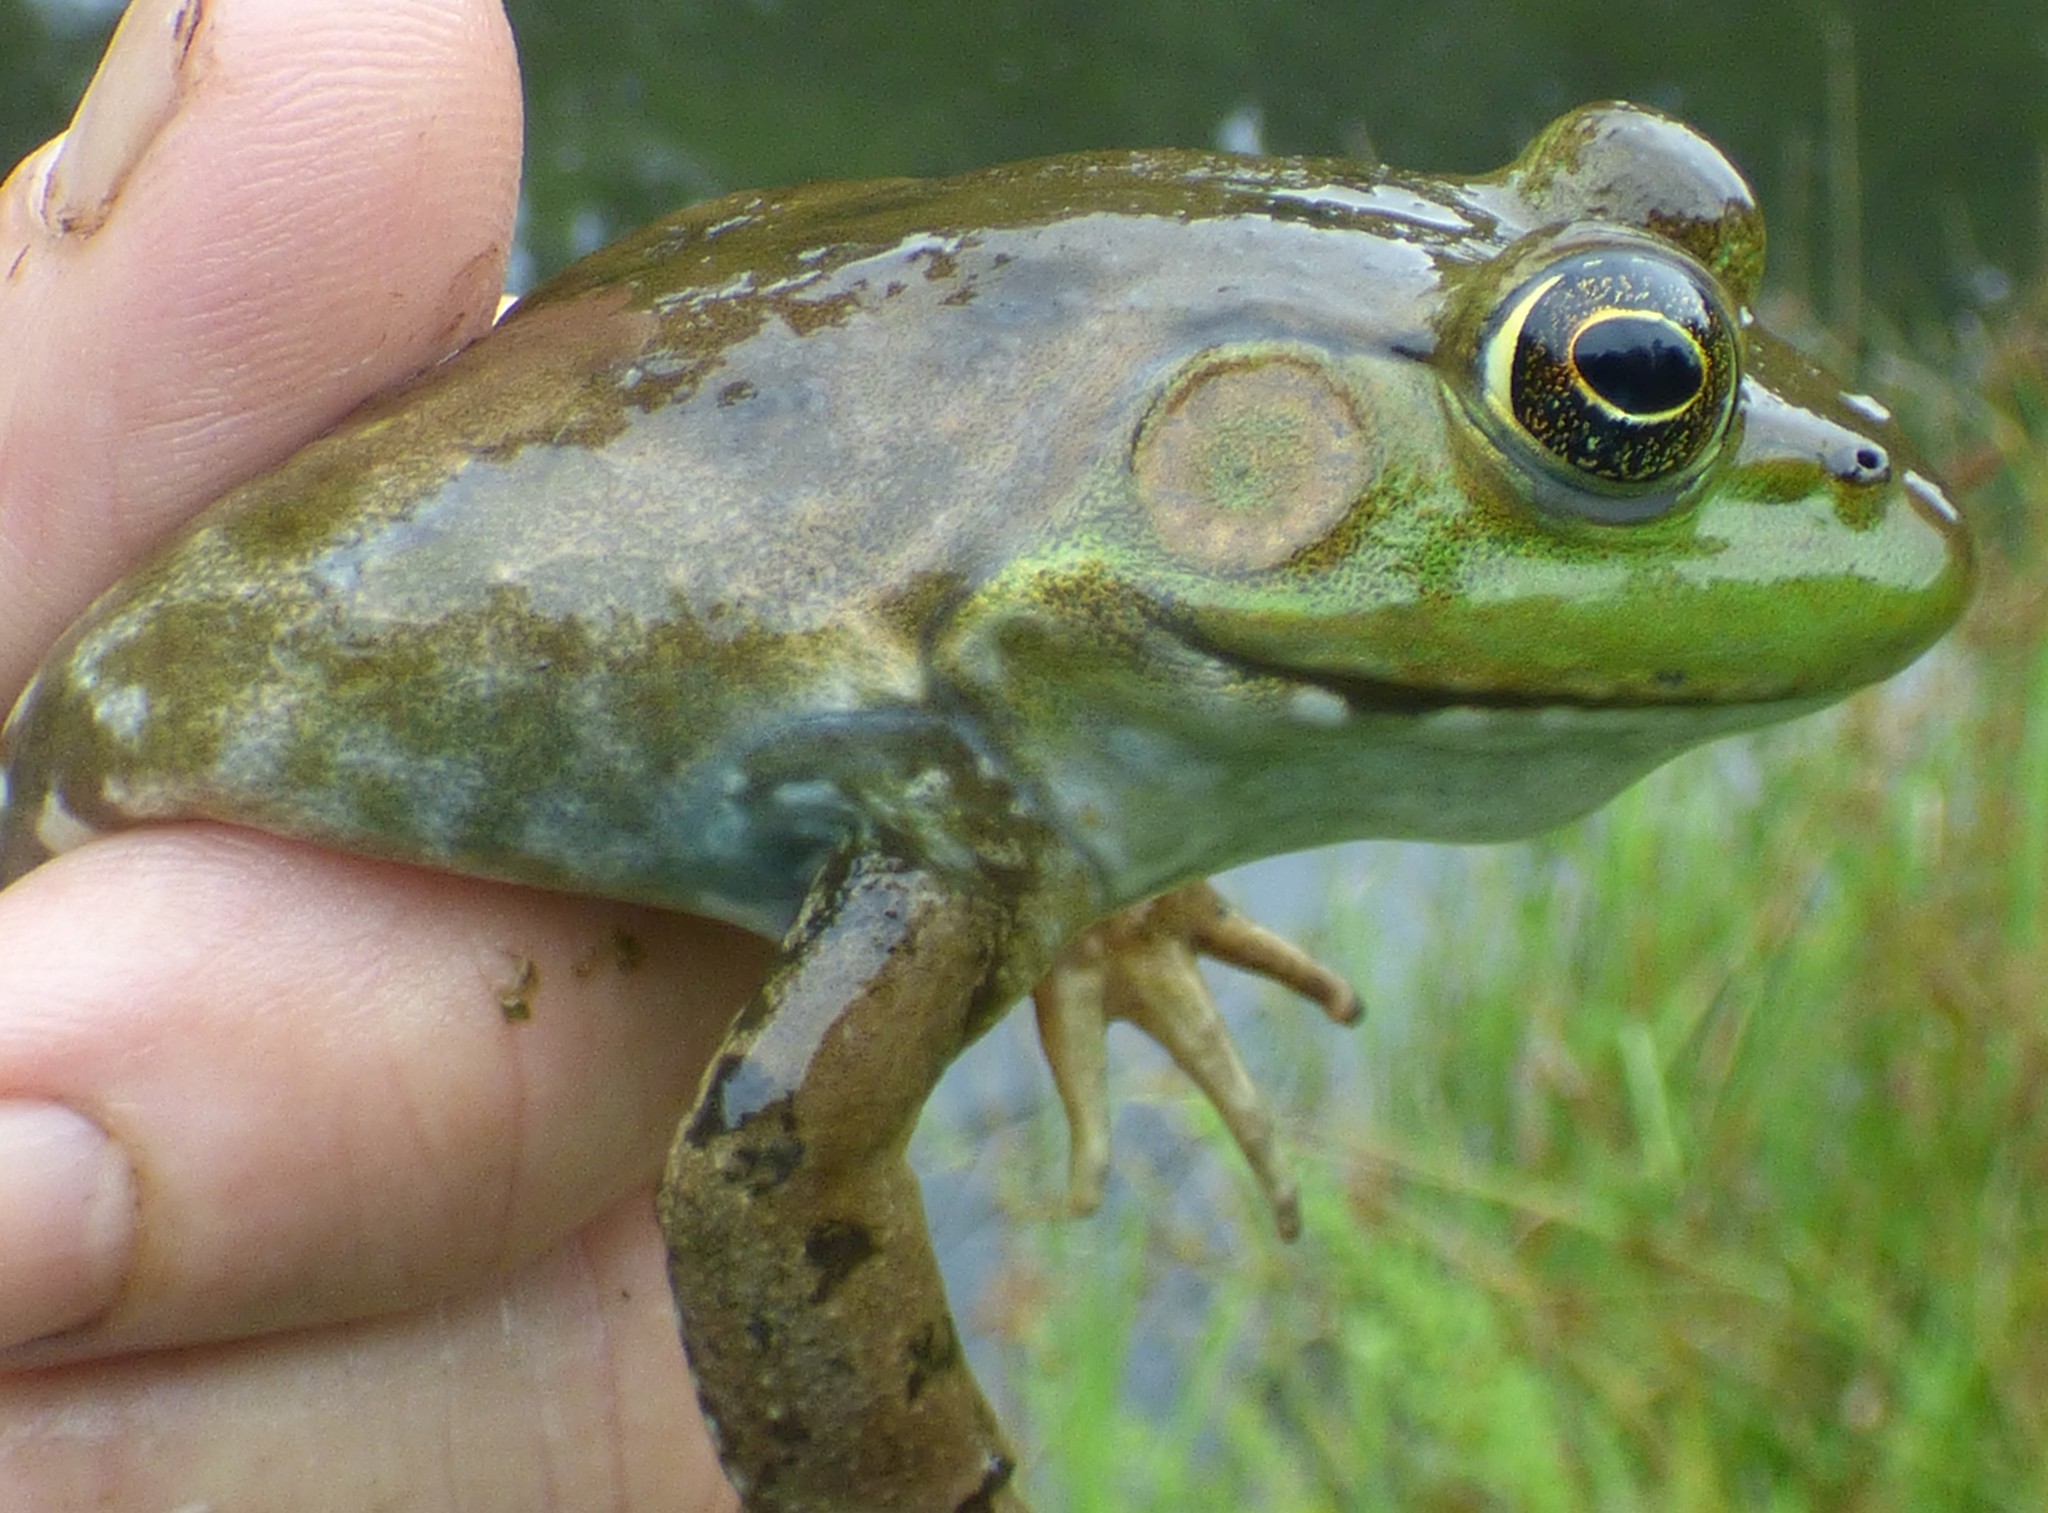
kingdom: Animalia
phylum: Chordata
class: Amphibia
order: Anura
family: Ranidae
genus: Lithobates
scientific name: Lithobates catesbeianus
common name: American bullfrog
